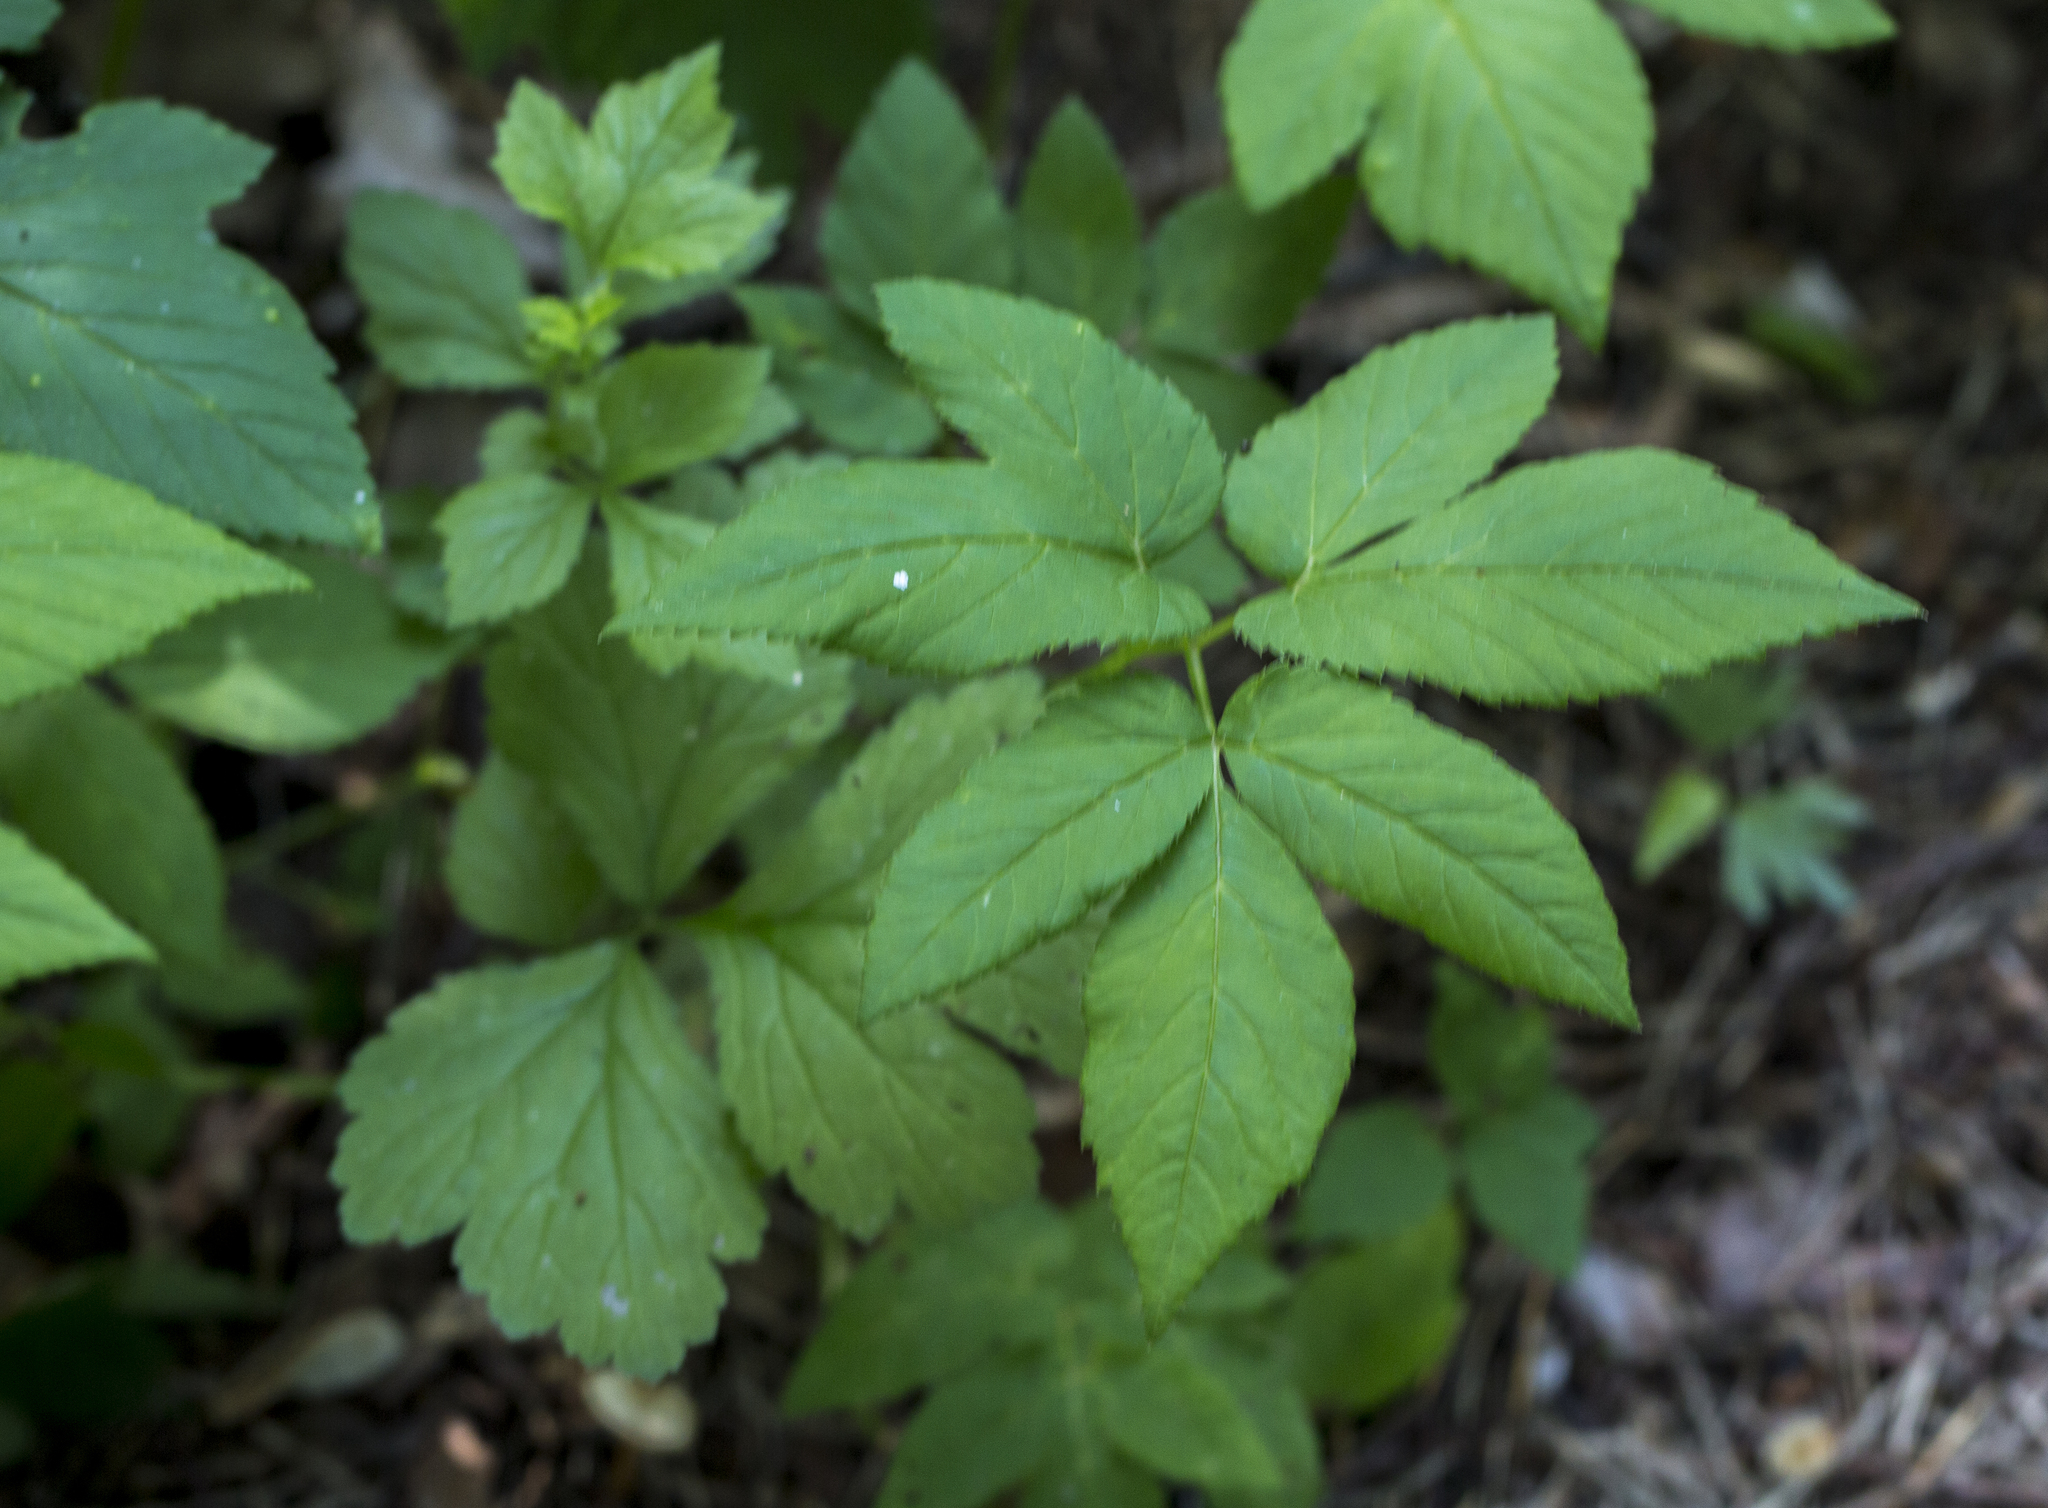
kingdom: Plantae
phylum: Tracheophyta
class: Magnoliopsida
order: Apiales
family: Apiaceae
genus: Aegopodium
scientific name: Aegopodium podagraria
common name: Ground-elder
